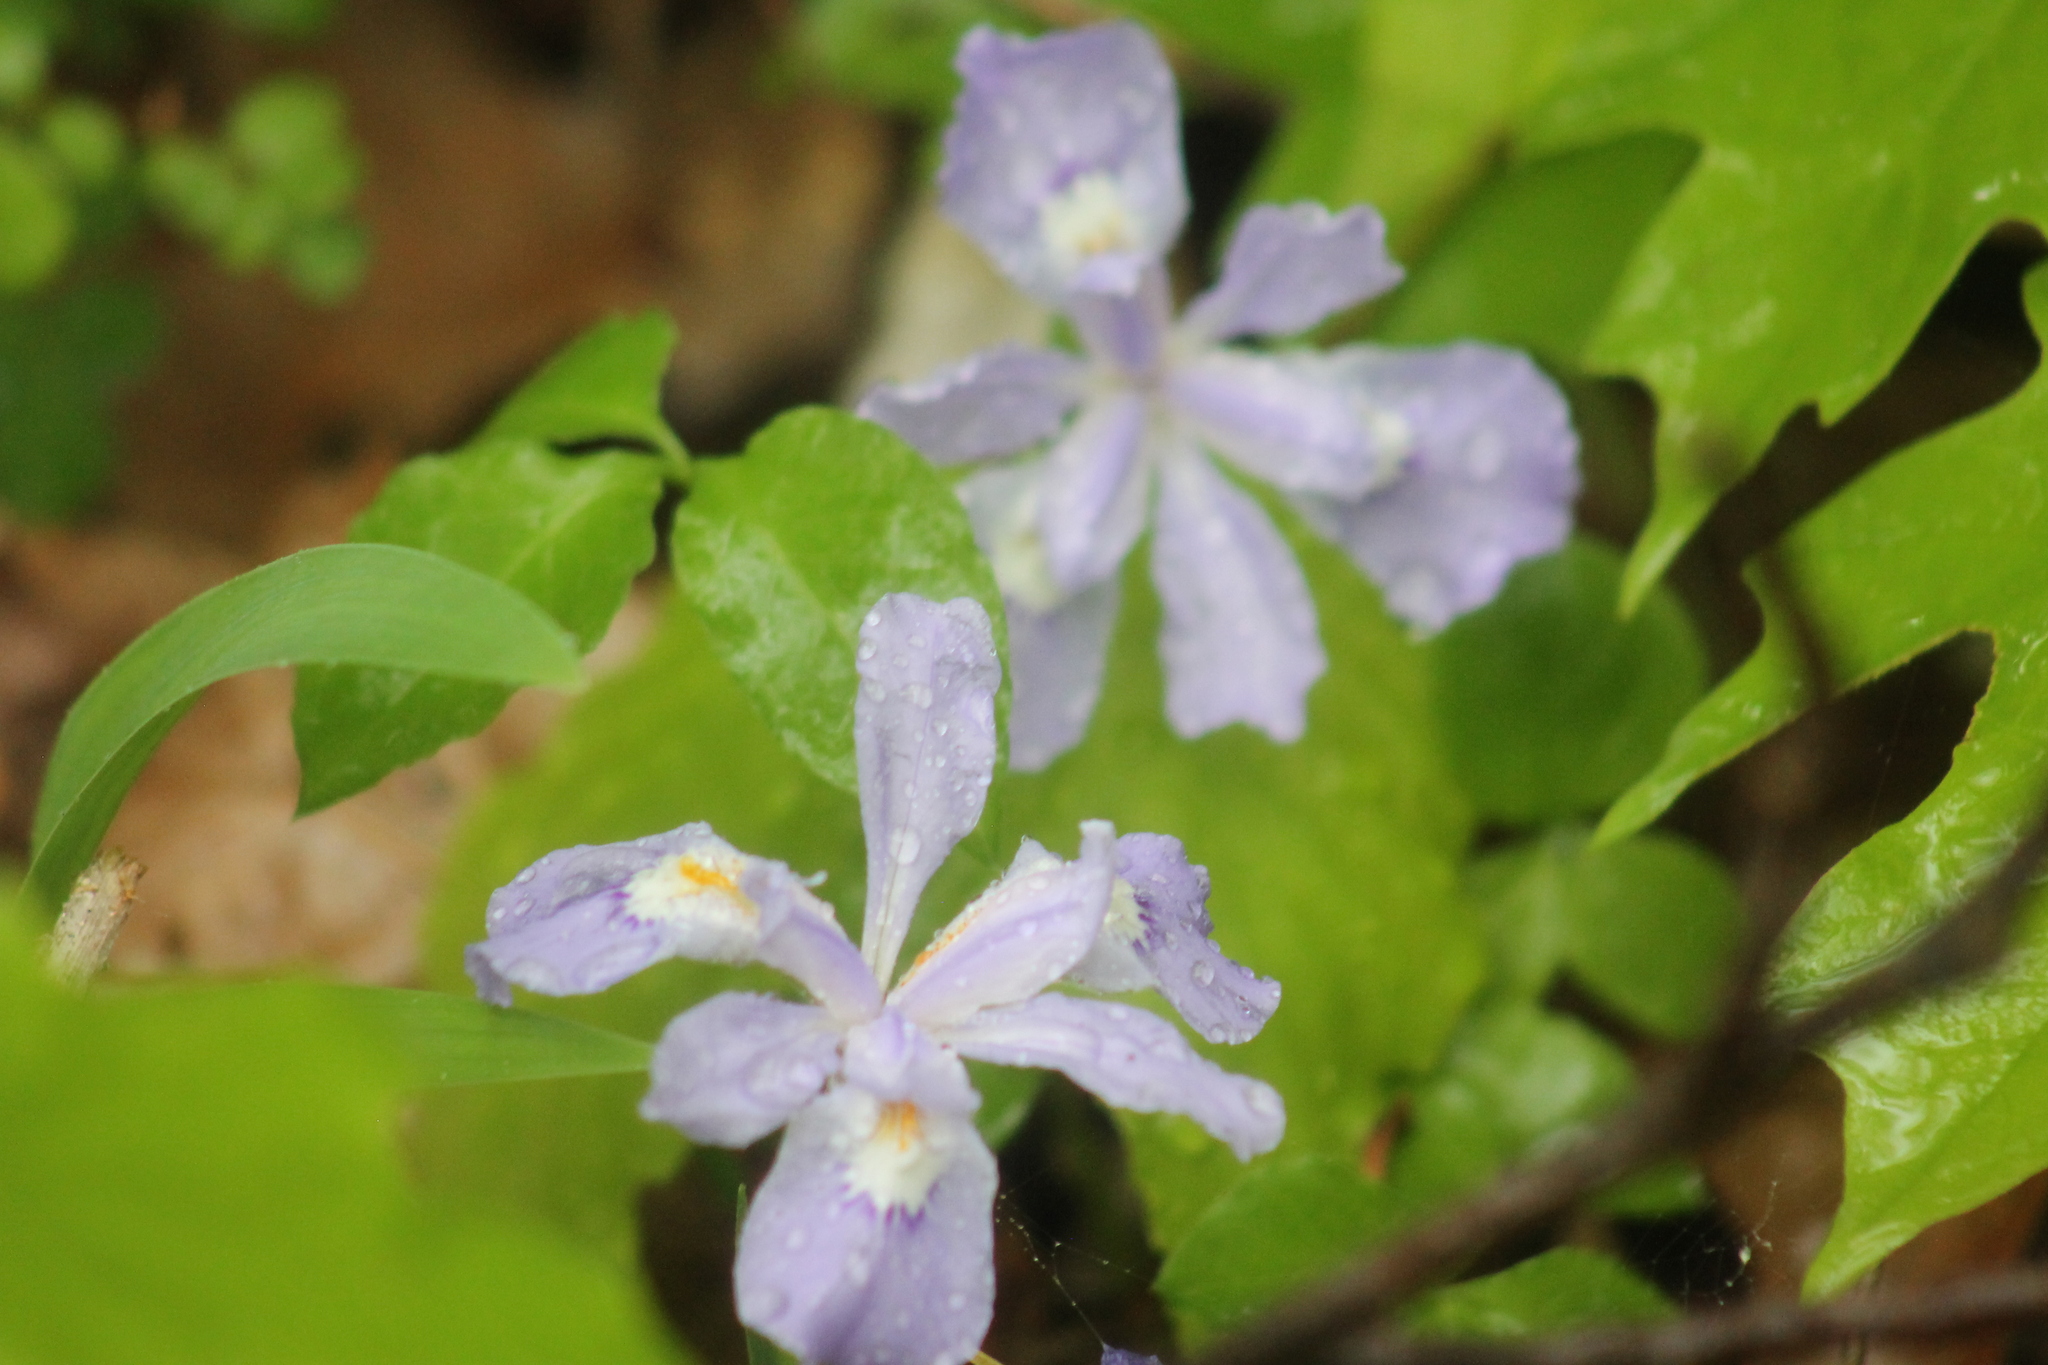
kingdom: Plantae
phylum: Tracheophyta
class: Liliopsida
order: Asparagales
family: Iridaceae
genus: Iris
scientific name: Iris cristata
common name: Crested iris
